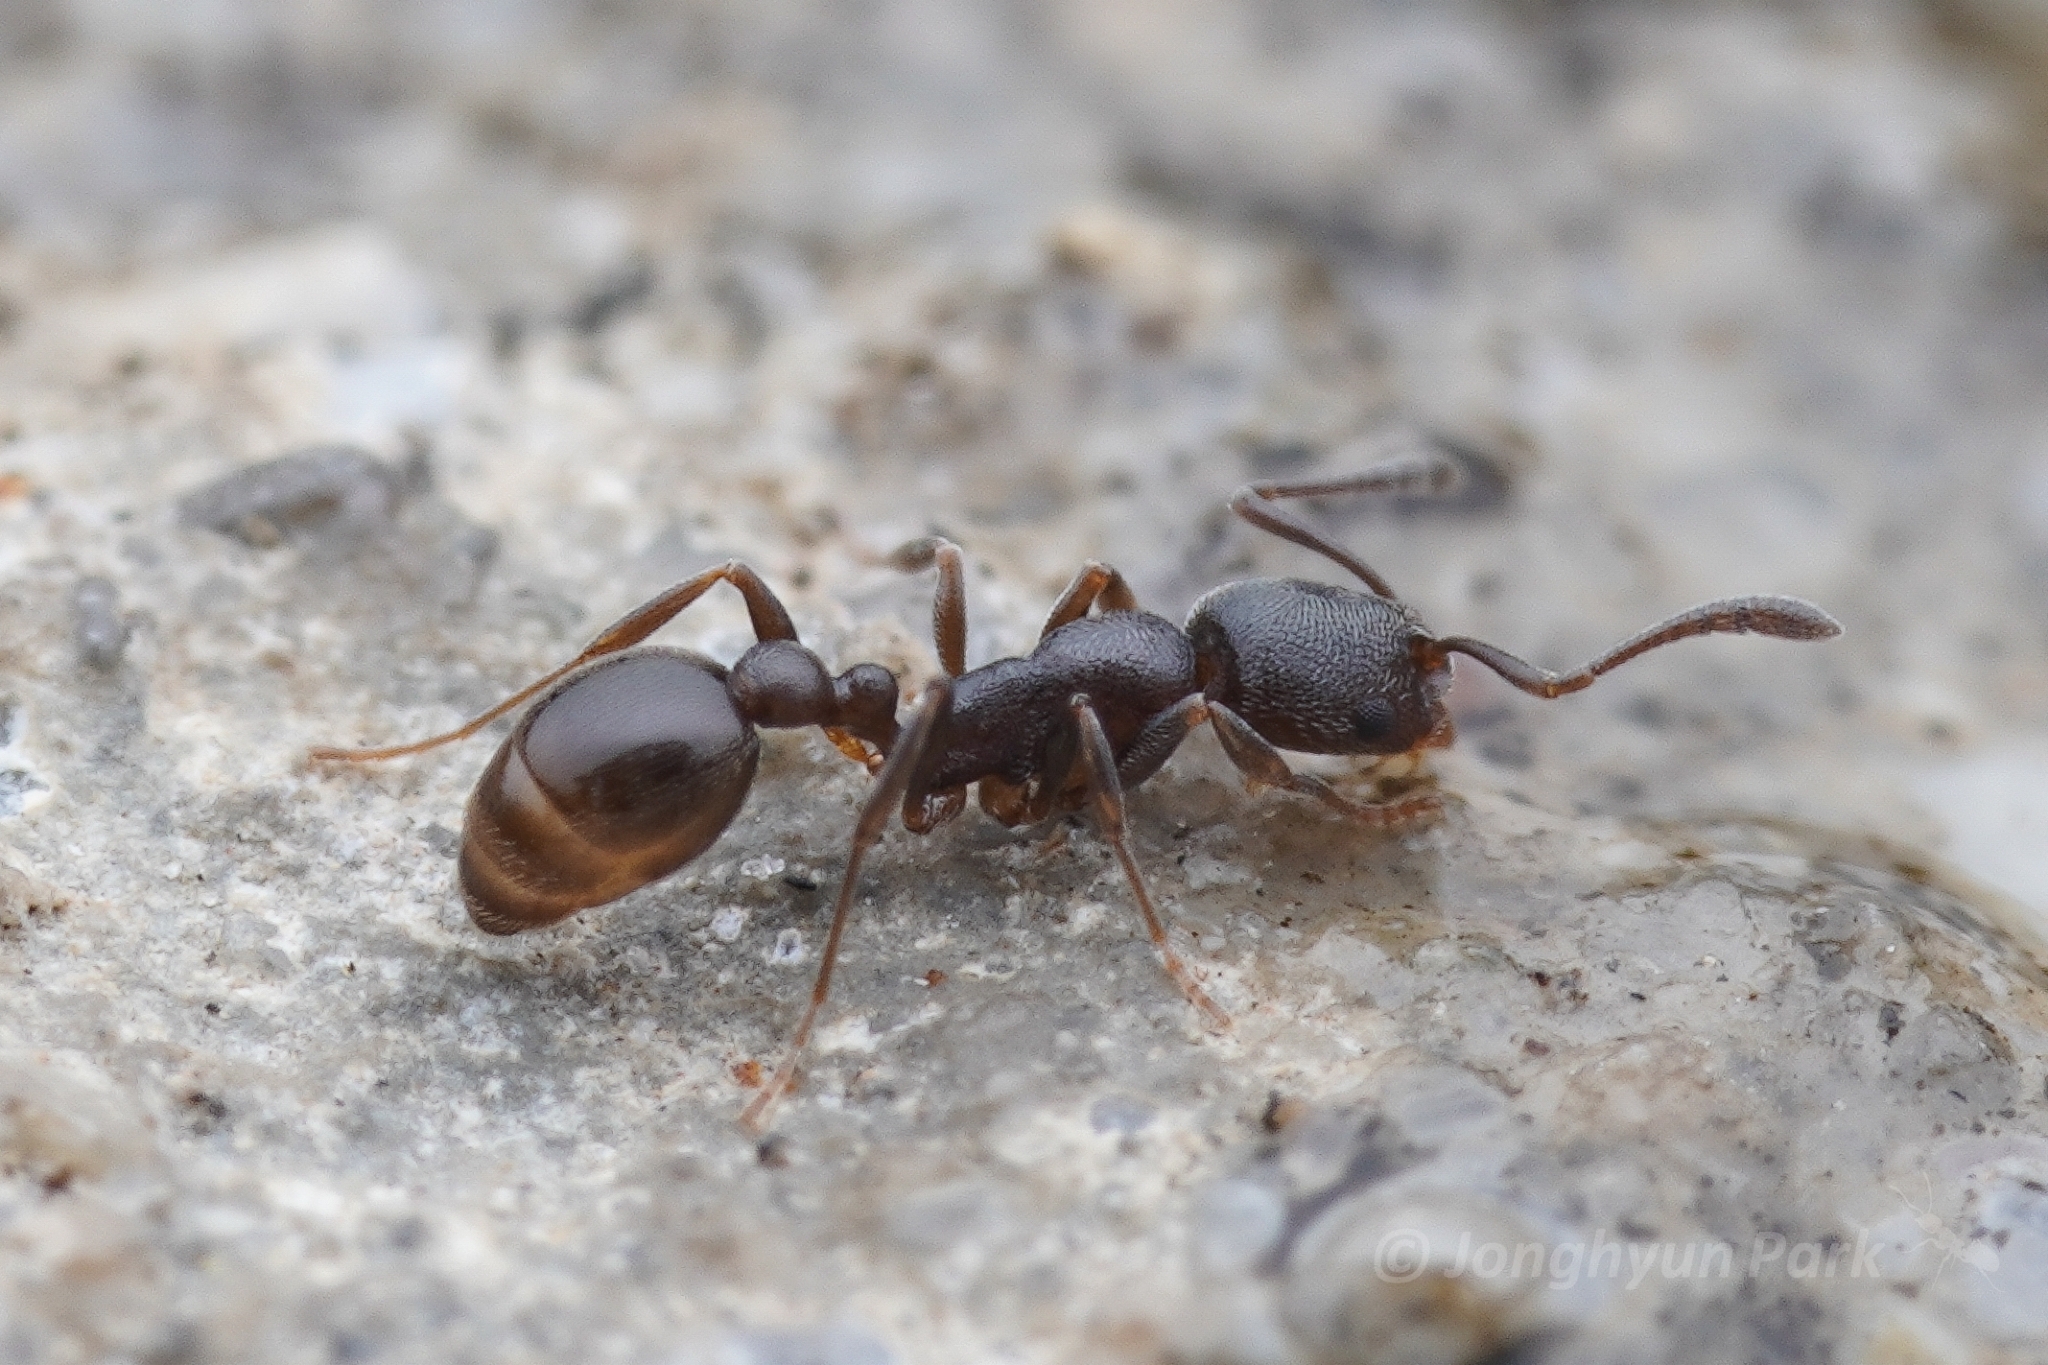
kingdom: Animalia
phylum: Arthropoda
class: Insecta
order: Hymenoptera
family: Formicidae
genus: Cardiocondyla
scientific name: Cardiocondyla shuckardi
